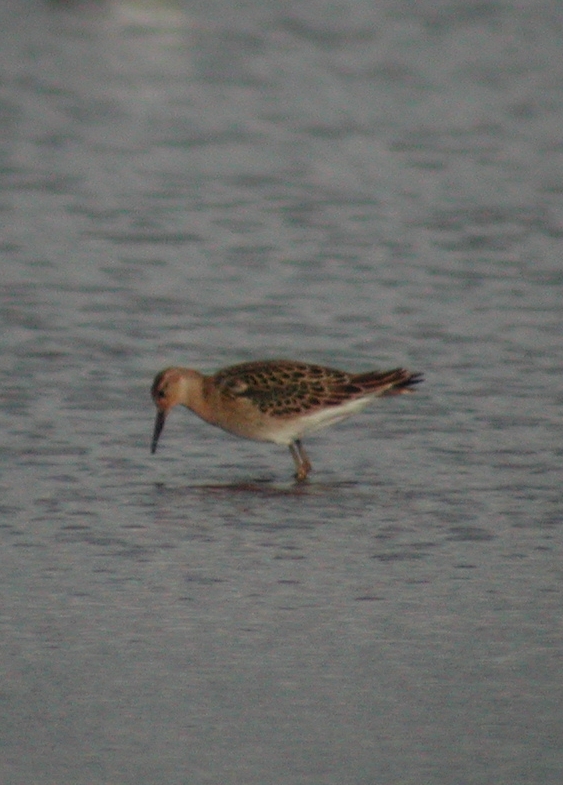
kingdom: Animalia
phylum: Chordata
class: Aves
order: Charadriiformes
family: Scolopacidae
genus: Calidris
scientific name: Calidris pugnax
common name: Ruff
